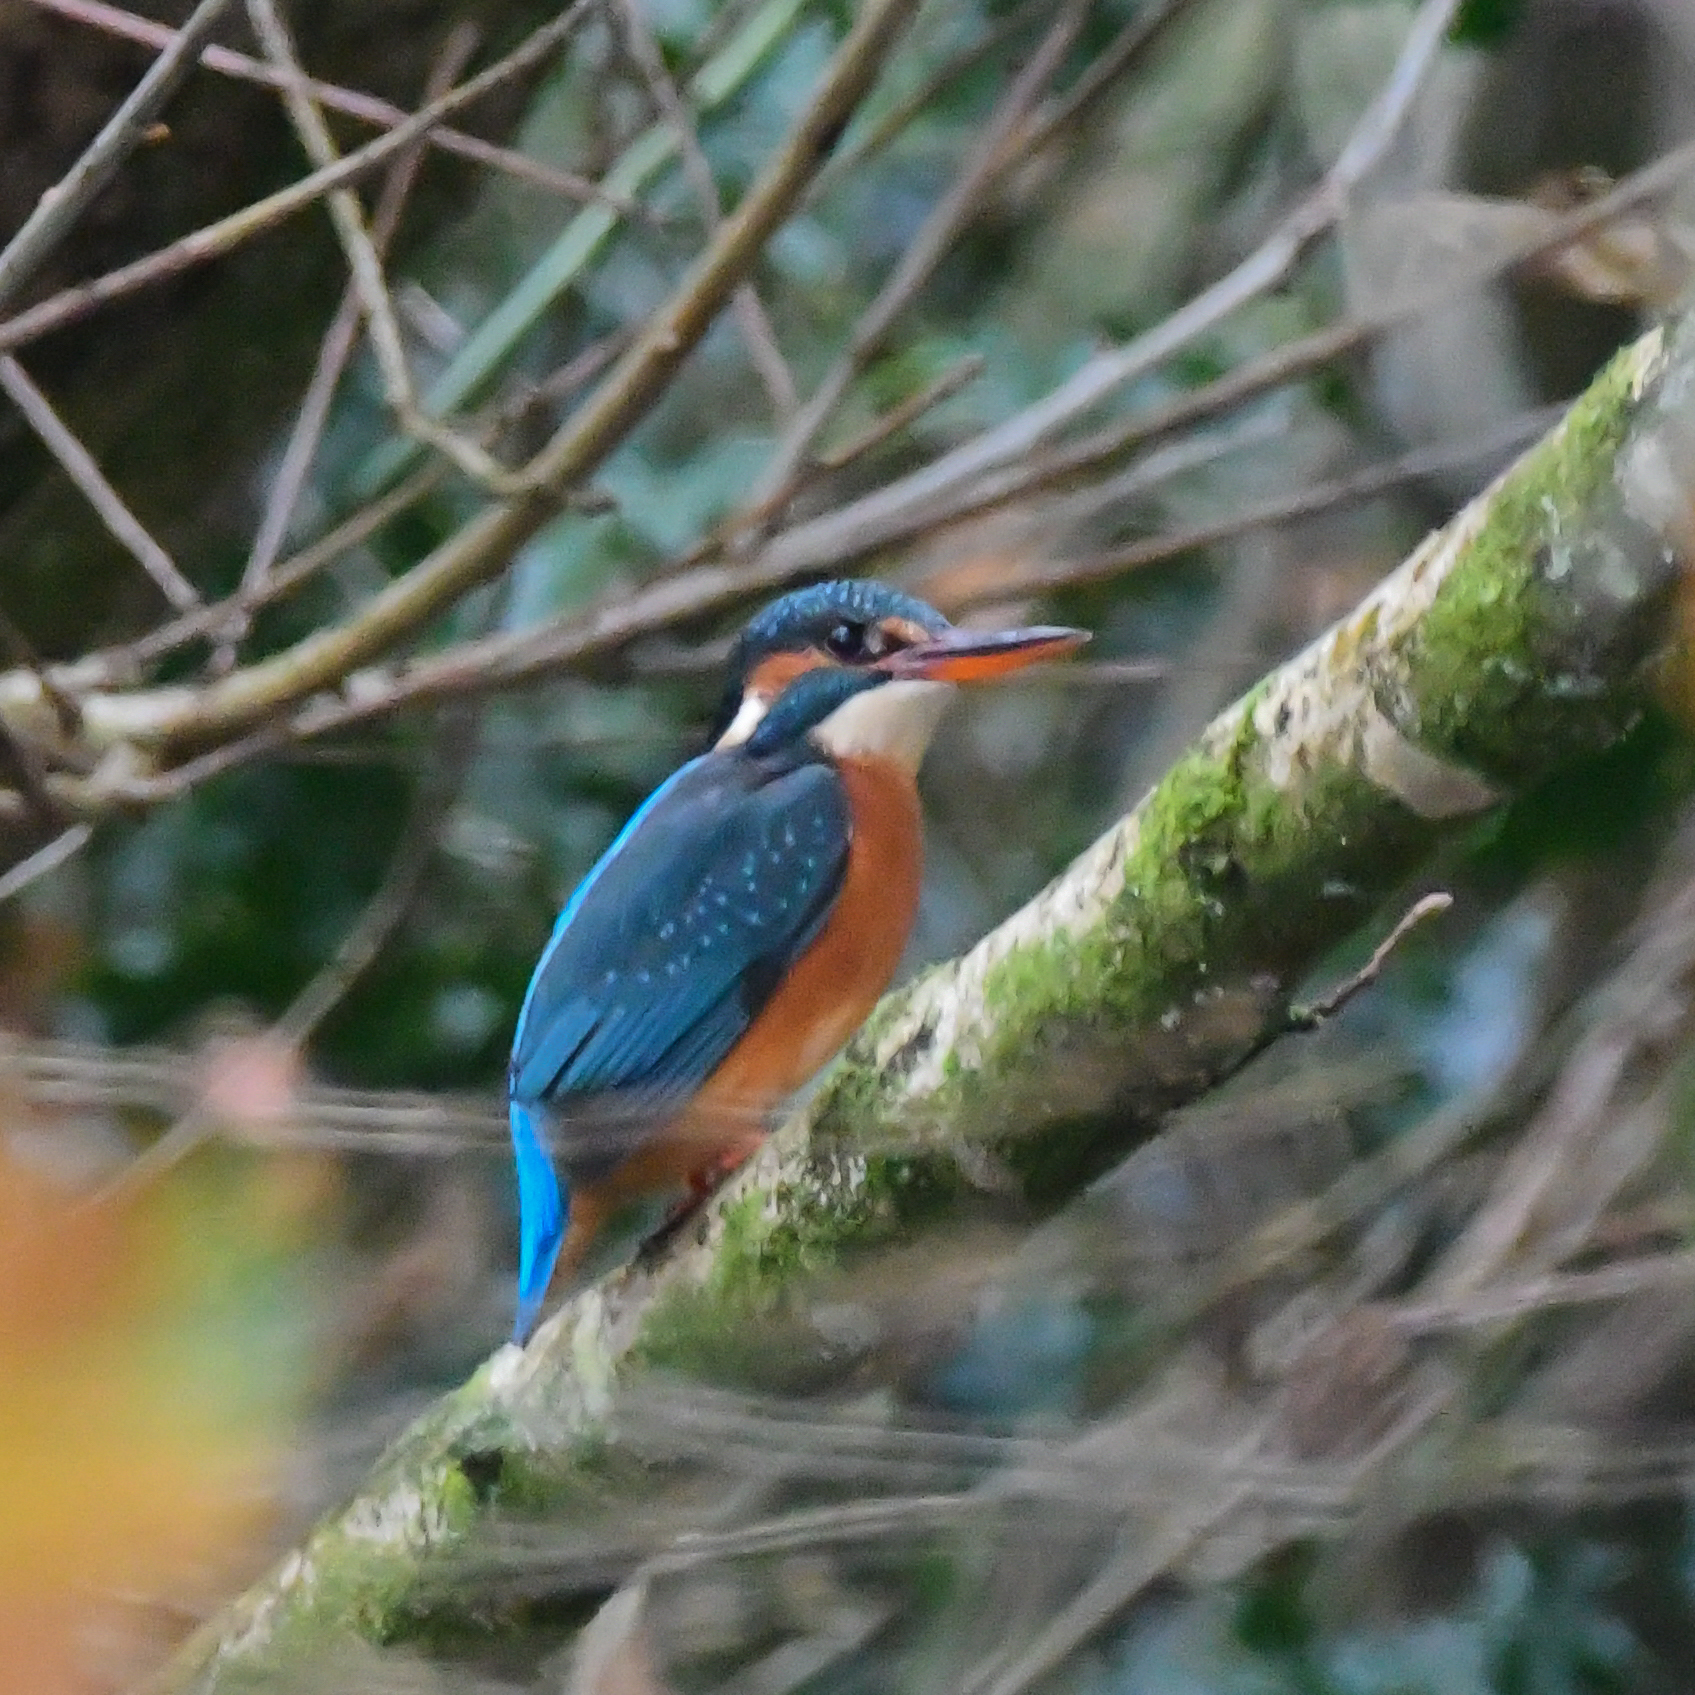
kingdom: Animalia
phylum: Chordata
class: Aves
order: Coraciiformes
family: Alcedinidae
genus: Alcedo
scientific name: Alcedo atthis
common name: Common kingfisher
